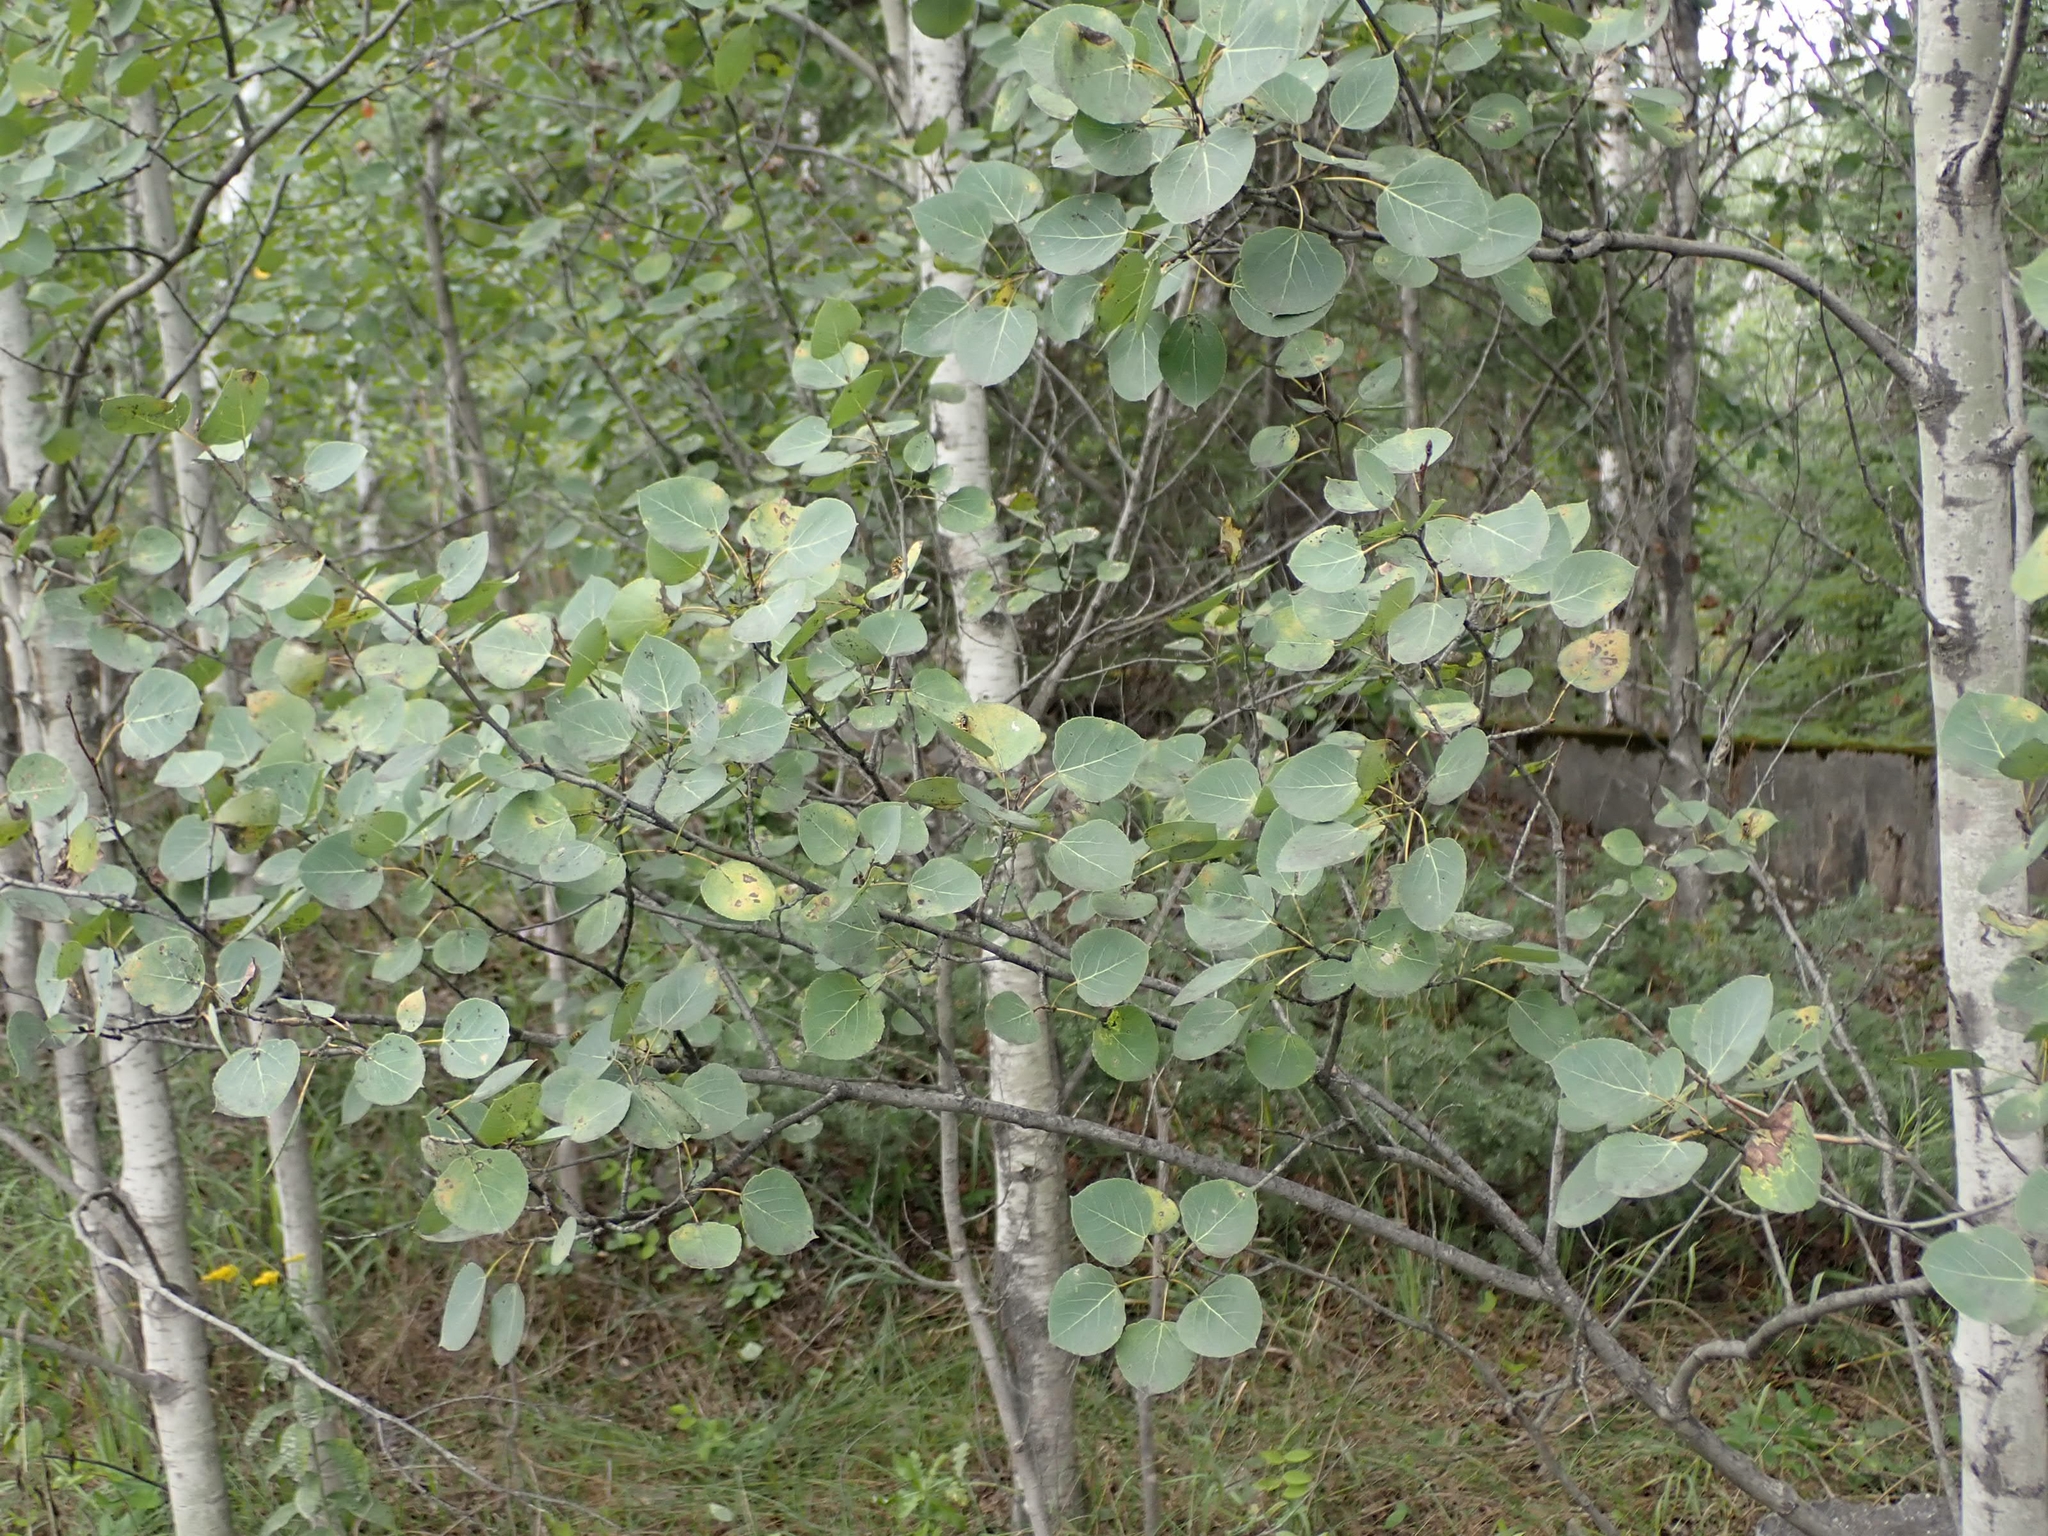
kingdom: Plantae
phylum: Tracheophyta
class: Magnoliopsida
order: Malpighiales
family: Salicaceae
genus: Populus
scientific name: Populus tremuloides
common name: Quaking aspen
